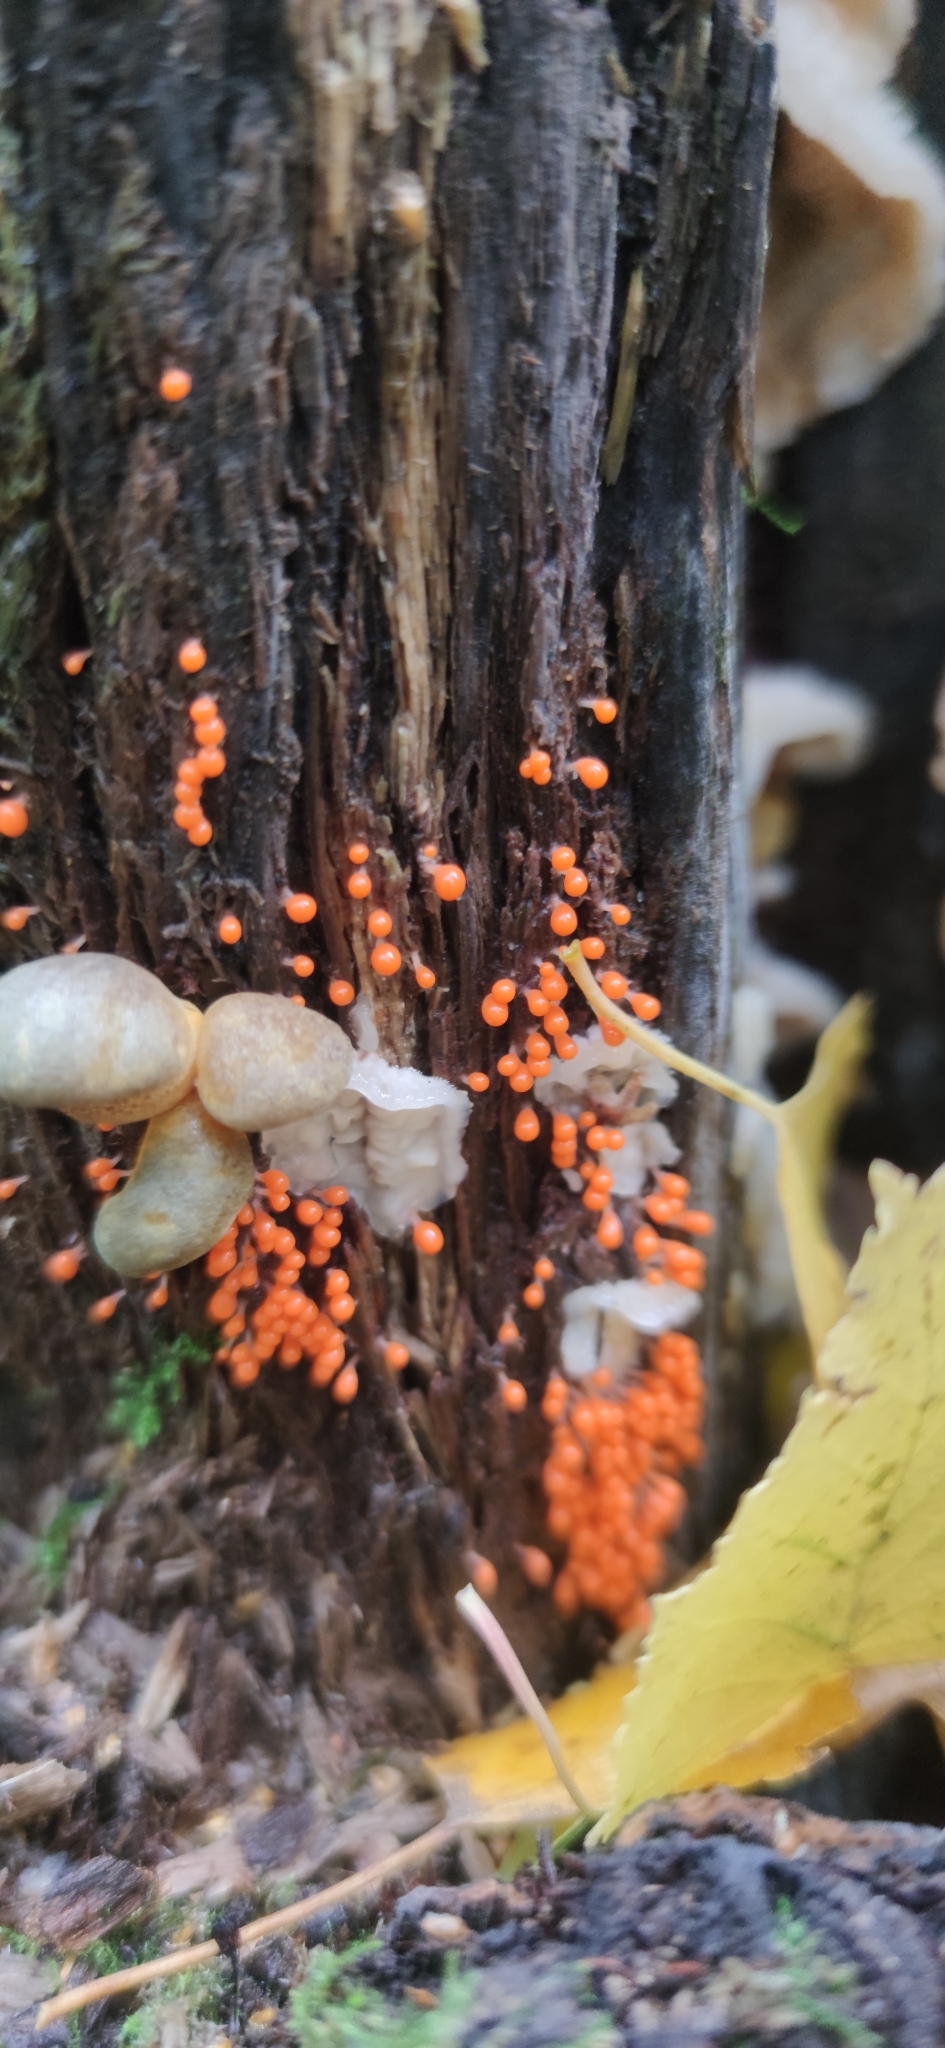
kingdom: Protozoa
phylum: Mycetozoa
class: Myxomycetes
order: Trichiales
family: Arcyriaceae
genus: Hemitrichia
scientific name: Hemitrichia decipiens
